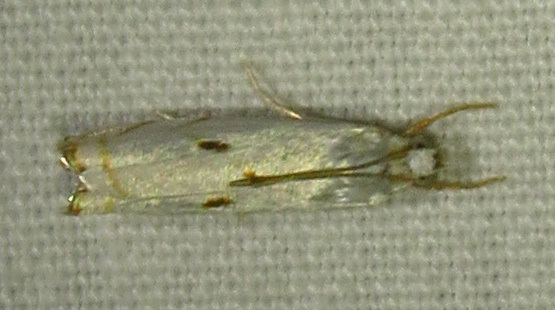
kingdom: Animalia
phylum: Arthropoda
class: Insecta
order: Lepidoptera
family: Crambidae
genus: Microcrambus
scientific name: Microcrambus biguttellus
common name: Gold-stripe grass-veneer moth
